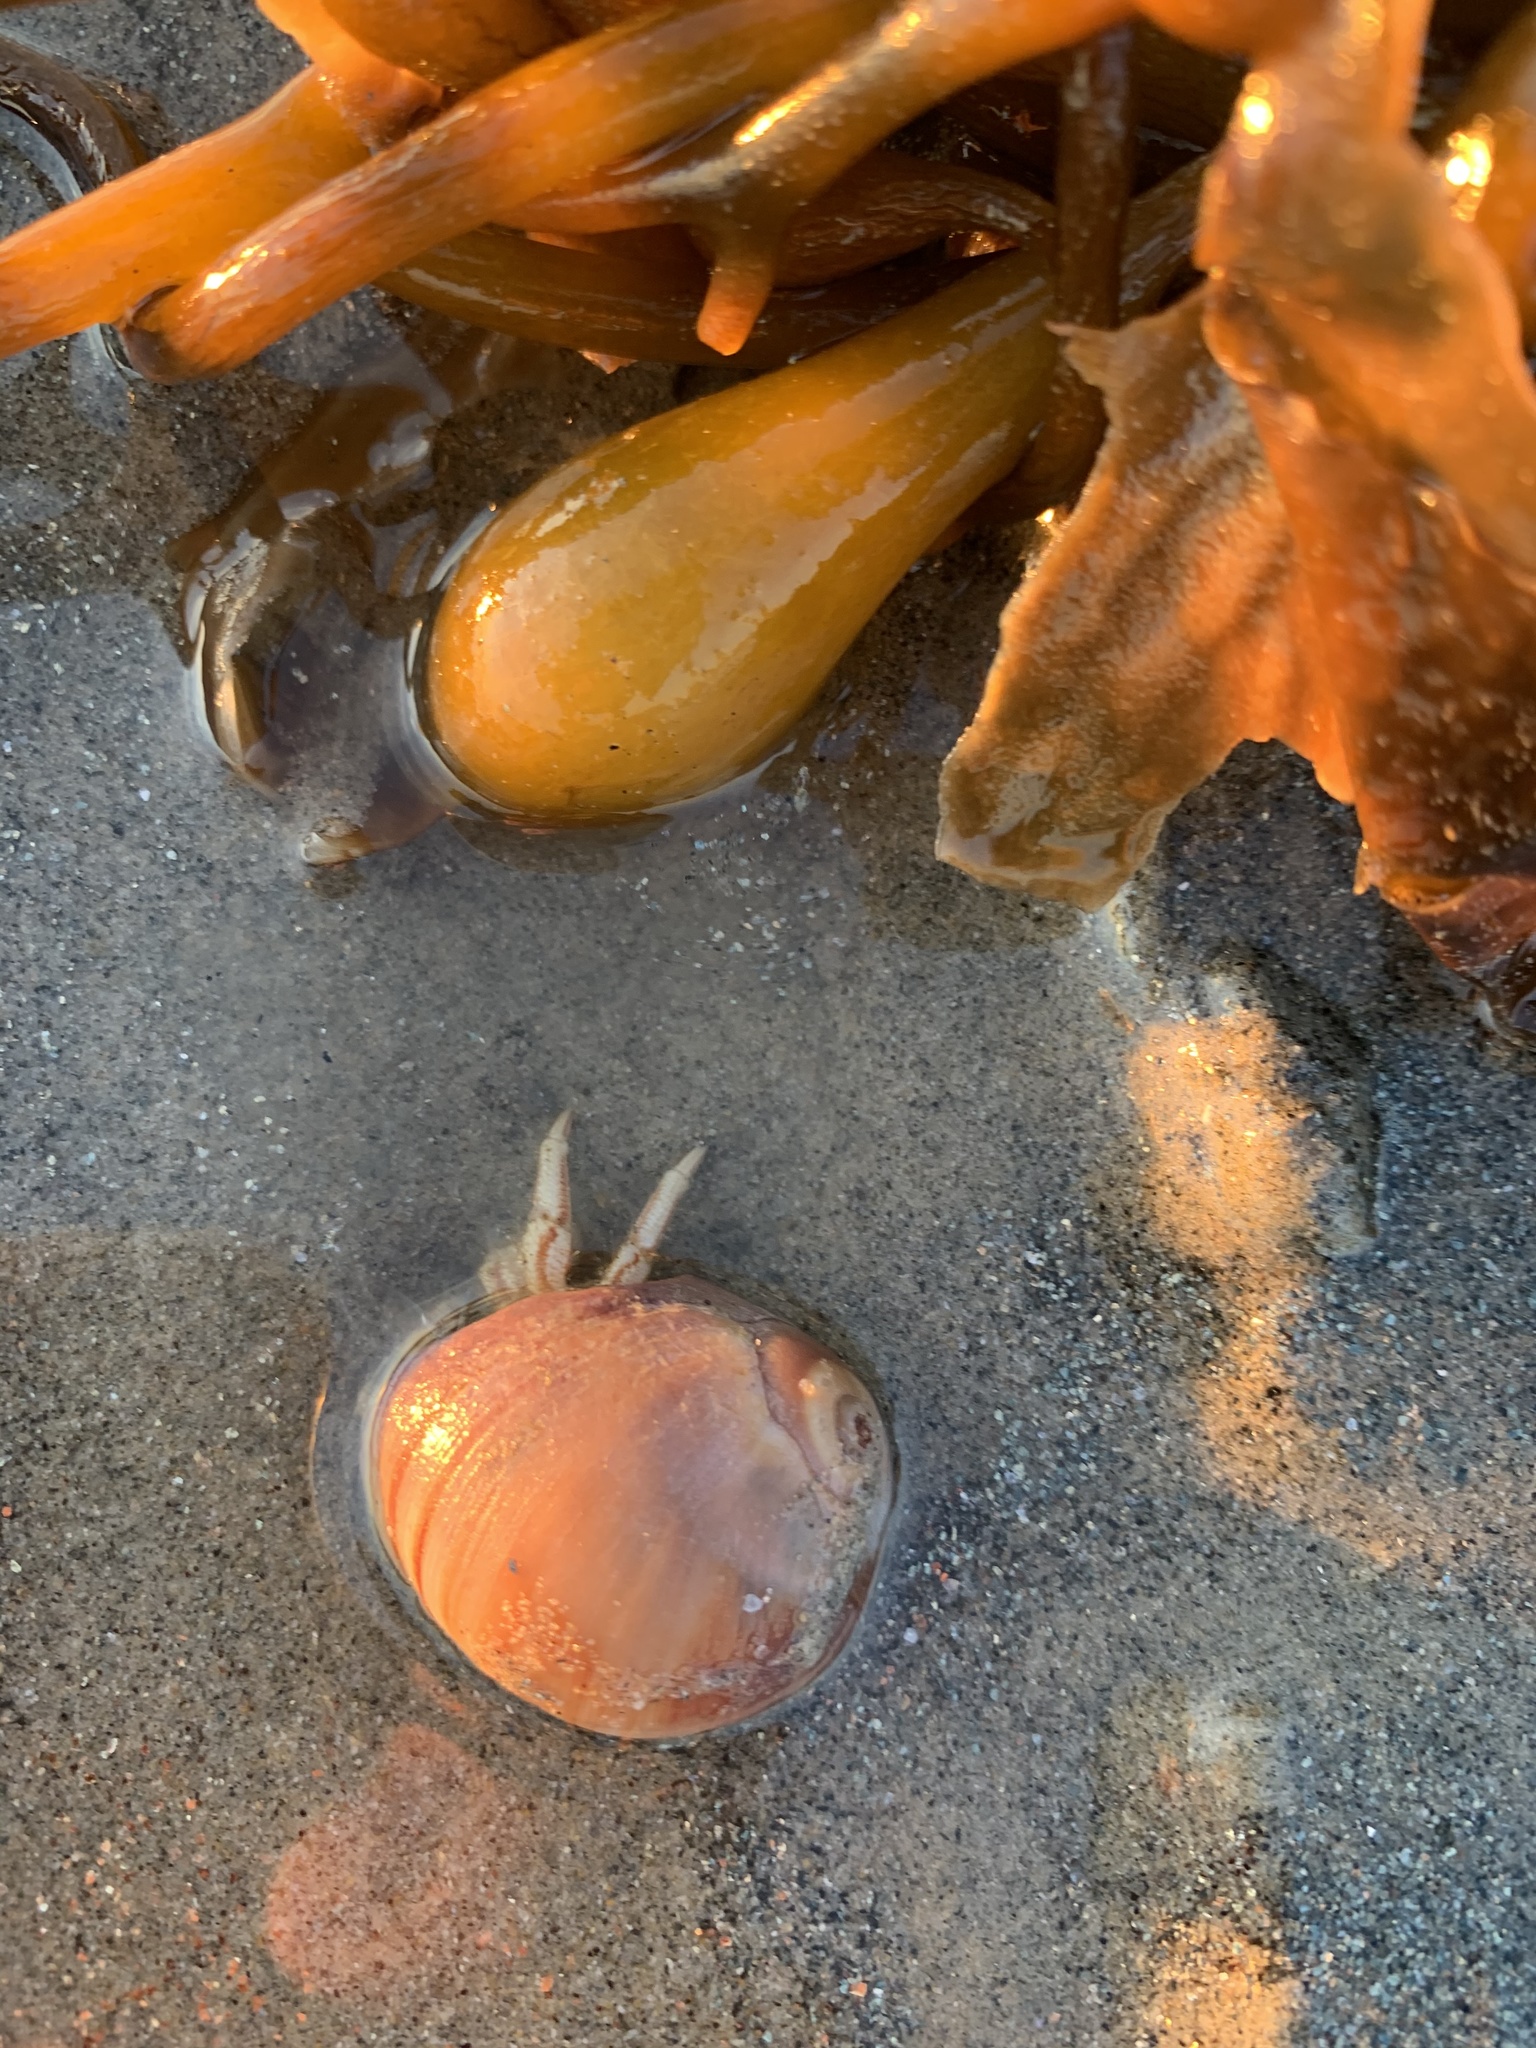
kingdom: Animalia
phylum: Arthropoda
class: Malacostraca
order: Decapoda
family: Diogenidae
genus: Isocheles
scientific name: Isocheles pilosus
